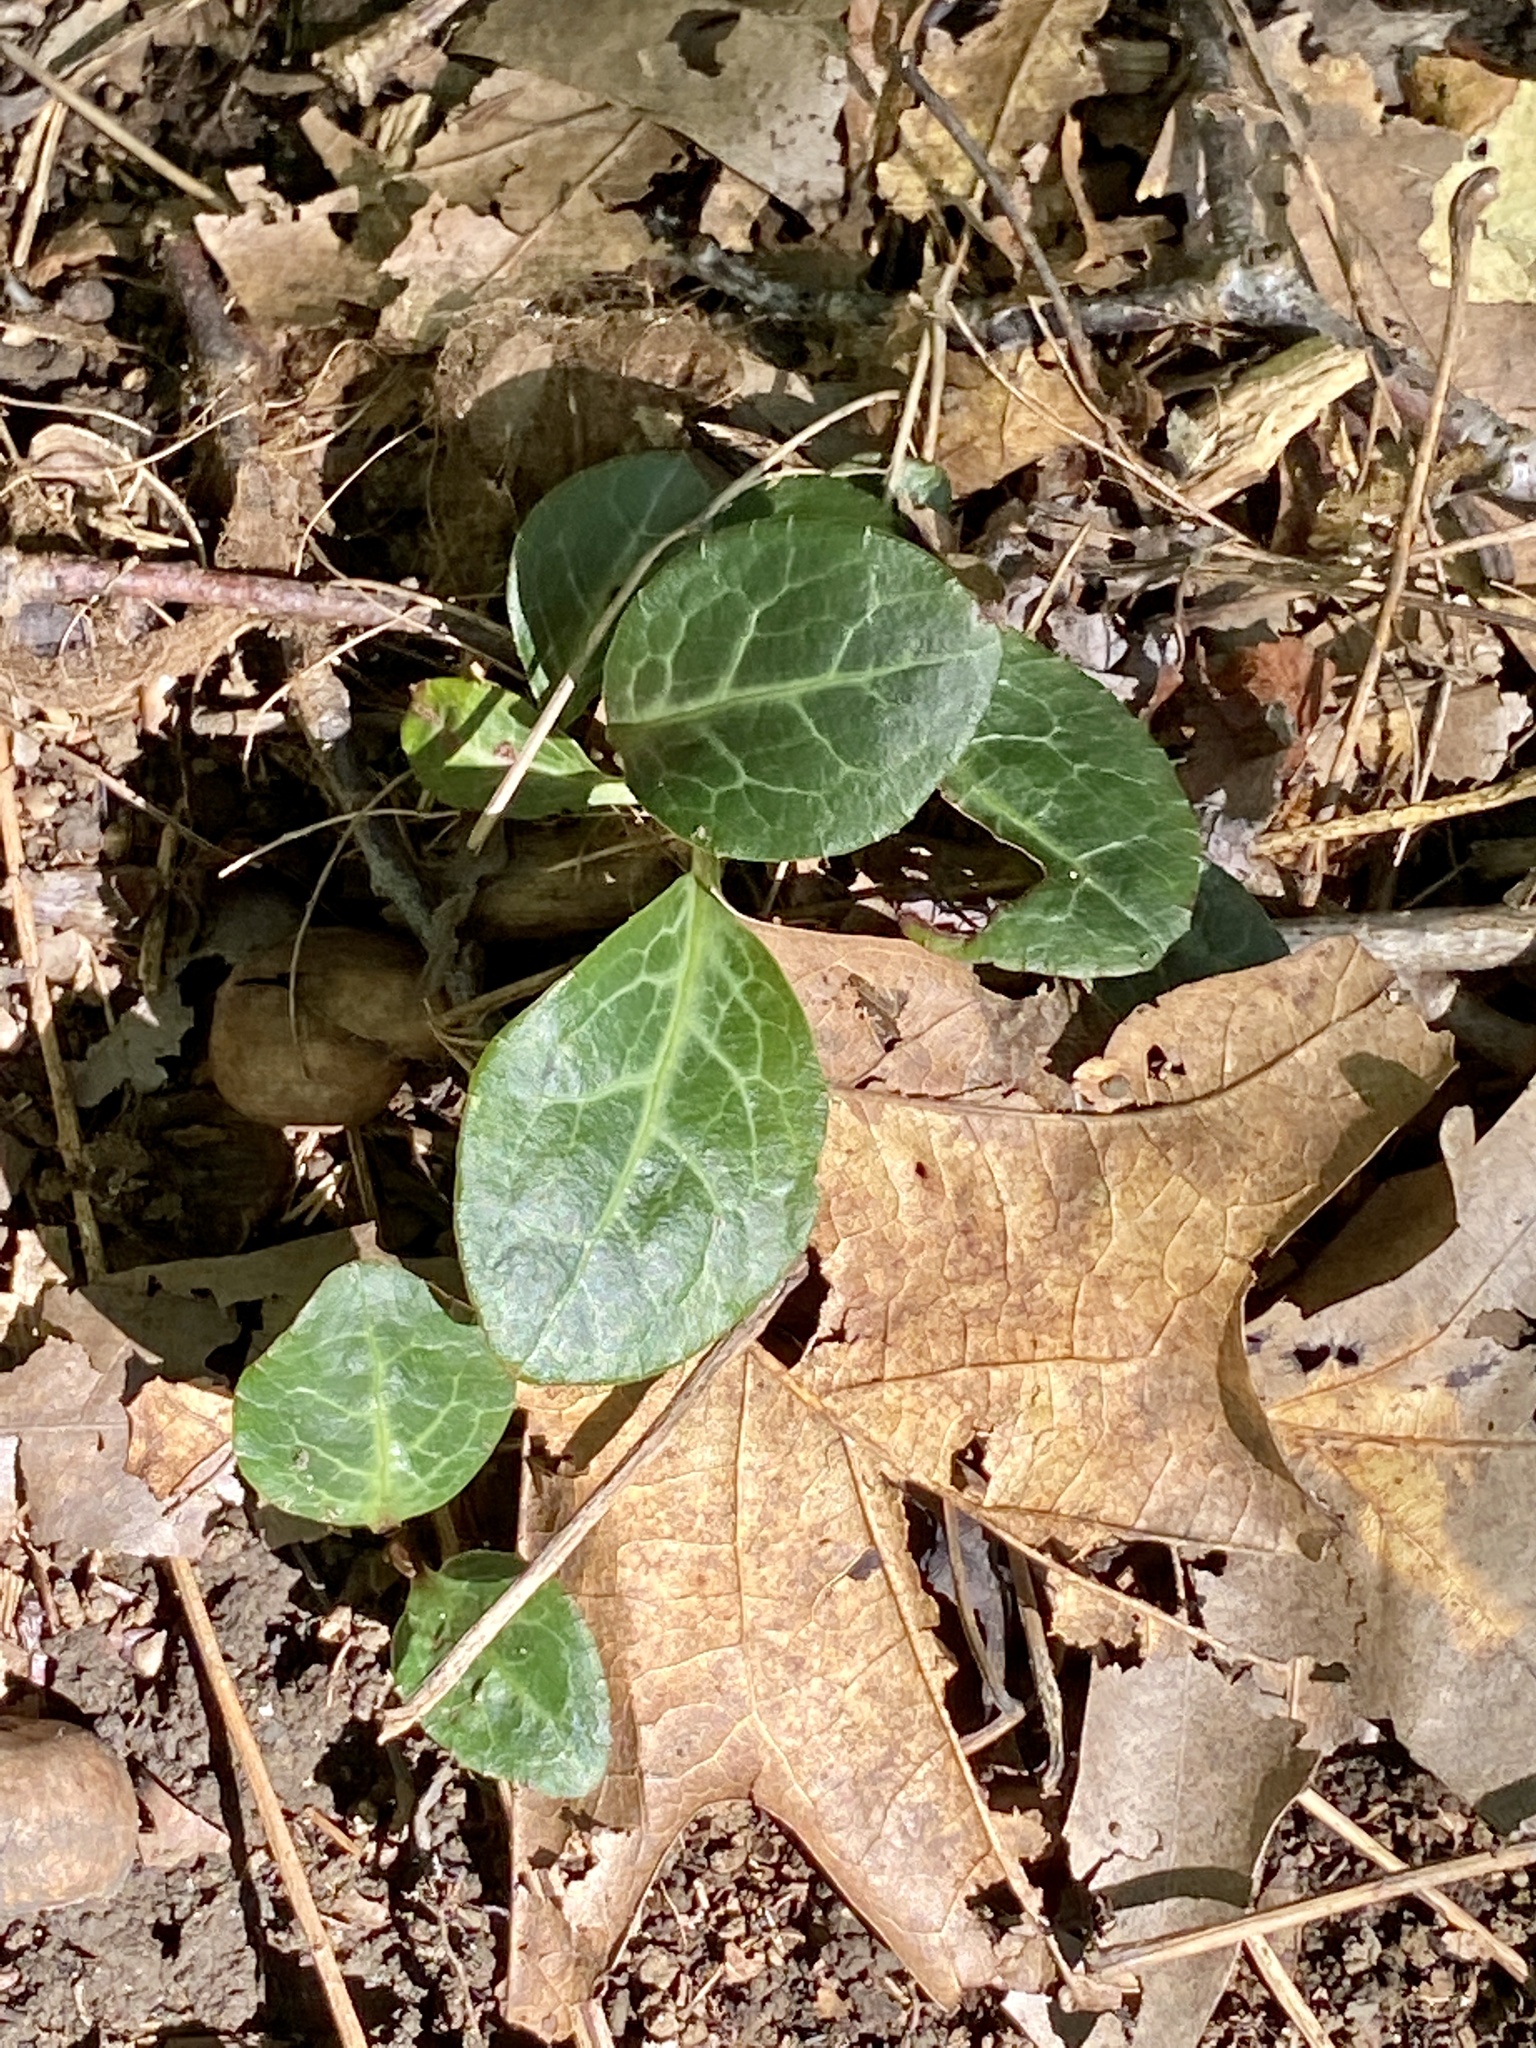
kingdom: Plantae
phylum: Tracheophyta
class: Magnoliopsida
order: Ericales
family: Ericaceae
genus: Pyrola
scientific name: Pyrola americana
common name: American wintergreen
